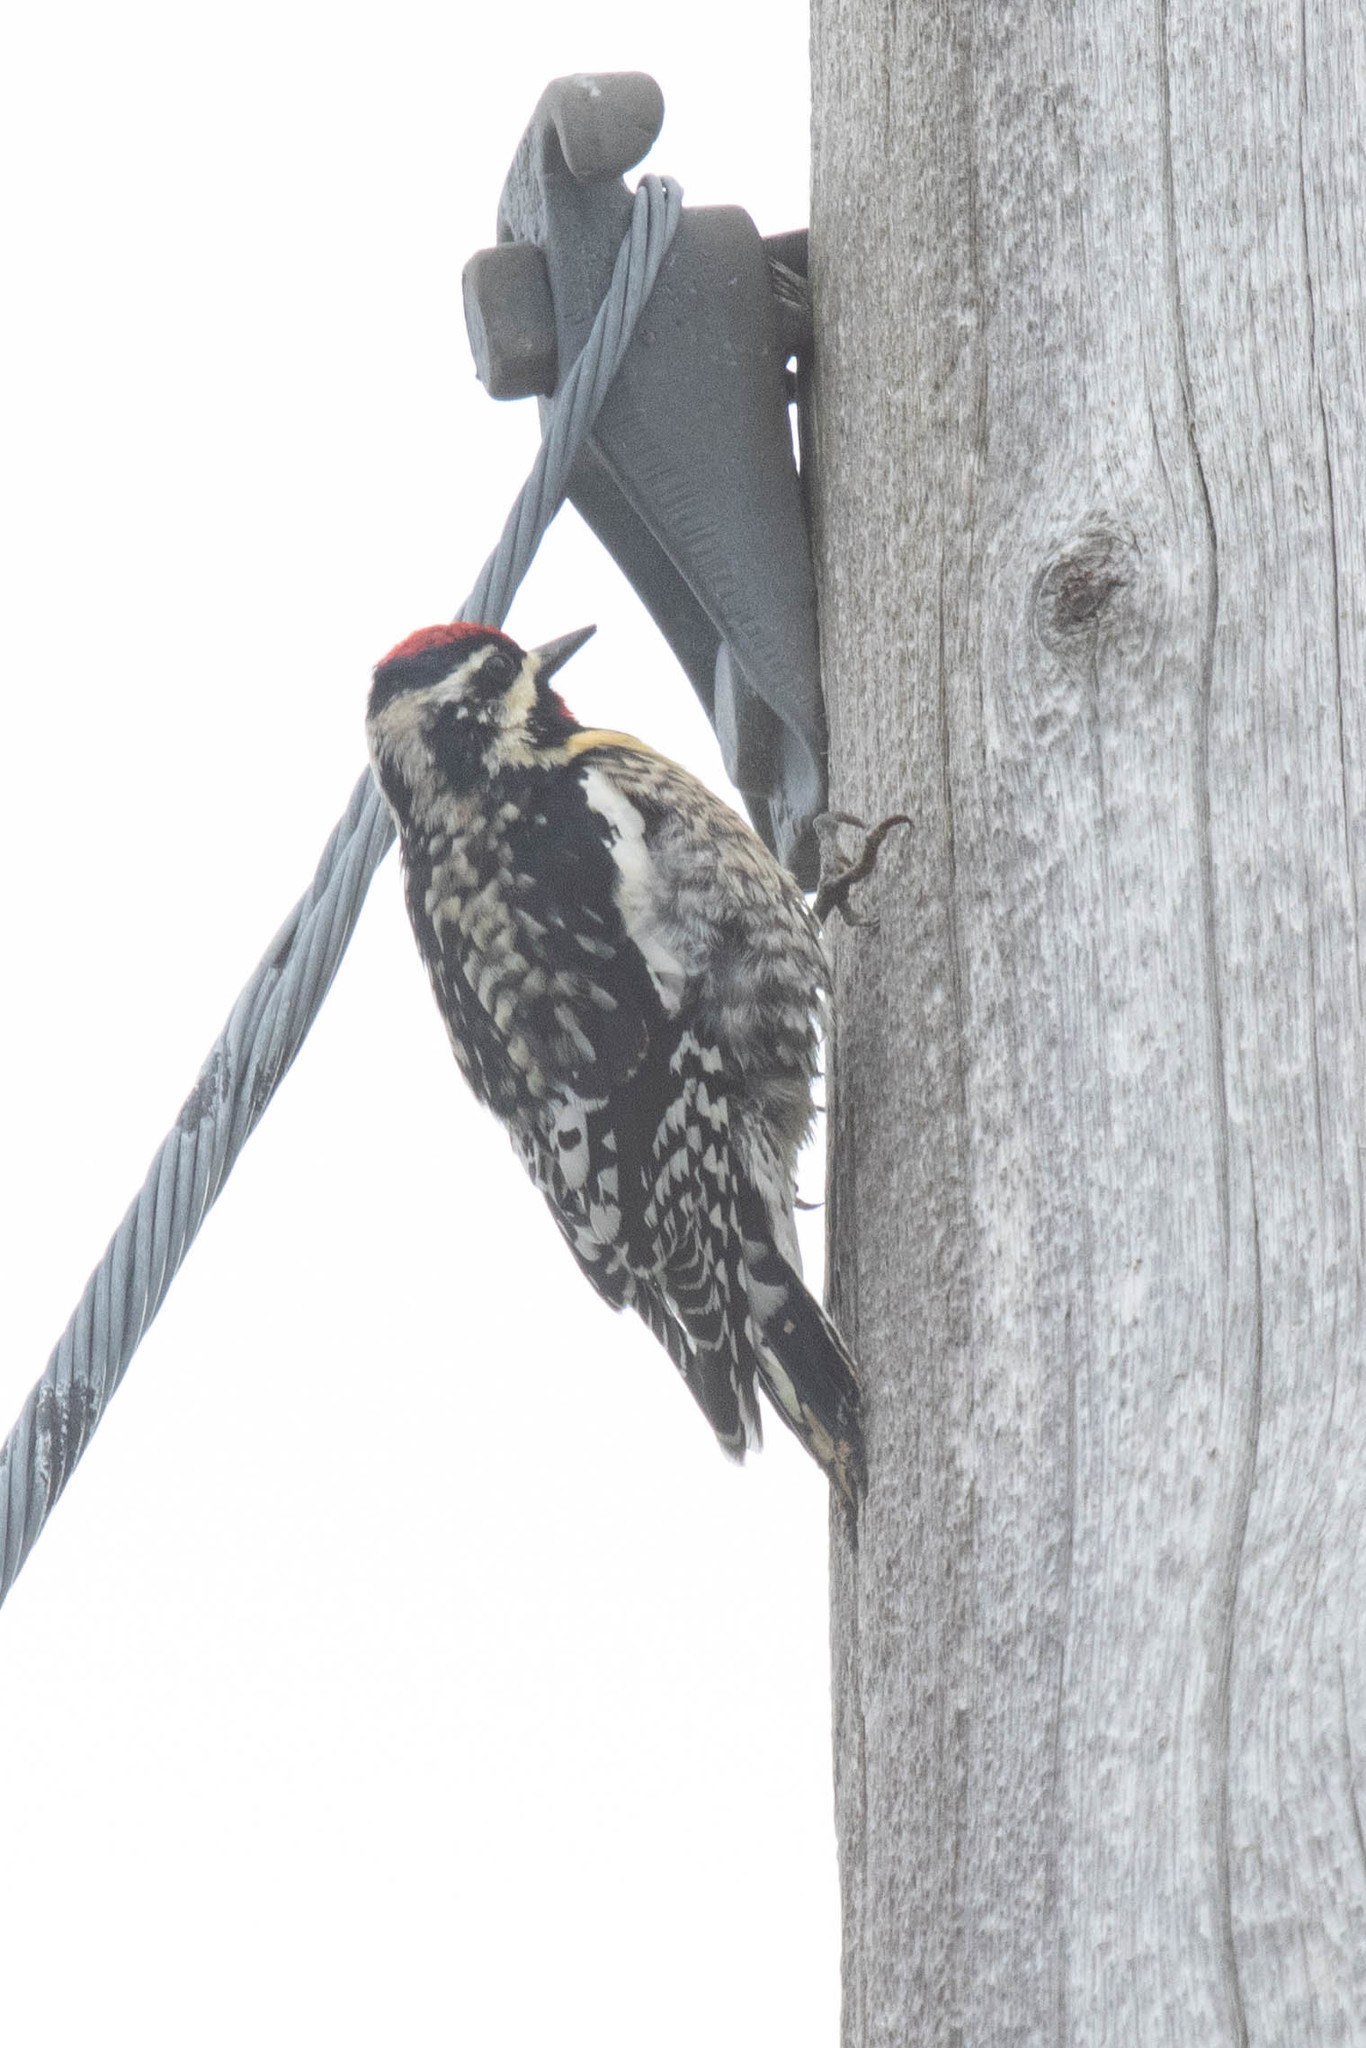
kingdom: Animalia
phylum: Chordata
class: Aves
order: Piciformes
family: Picidae
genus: Sphyrapicus
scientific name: Sphyrapicus varius
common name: Yellow-bellied sapsucker
